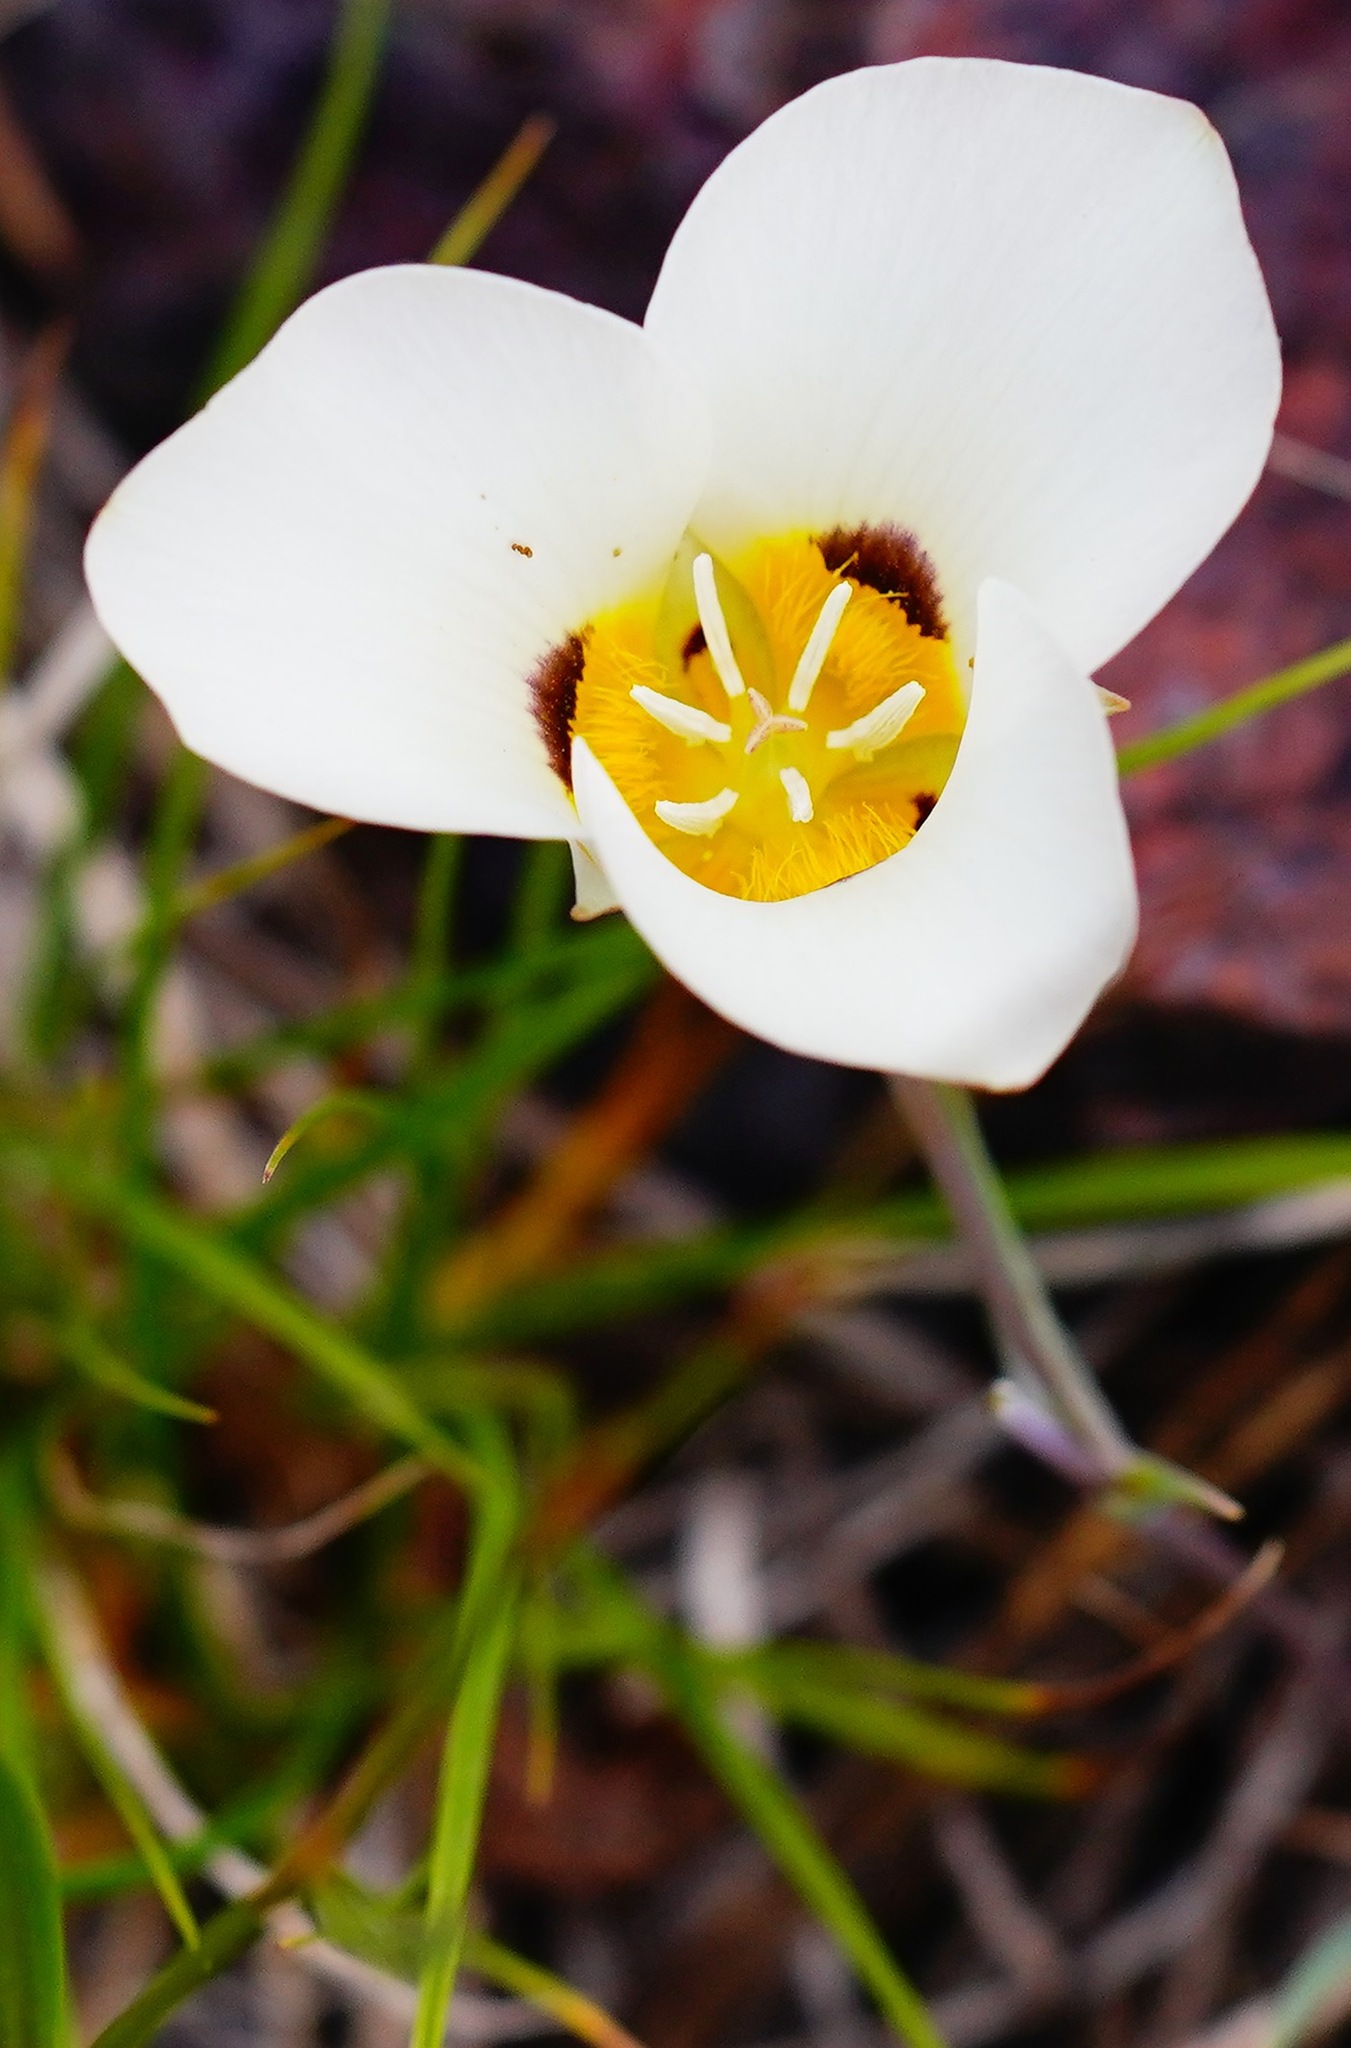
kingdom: Plantae
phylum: Tracheophyta
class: Liliopsida
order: Liliales
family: Liliaceae
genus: Calochortus
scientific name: Calochortus leichtlinii
